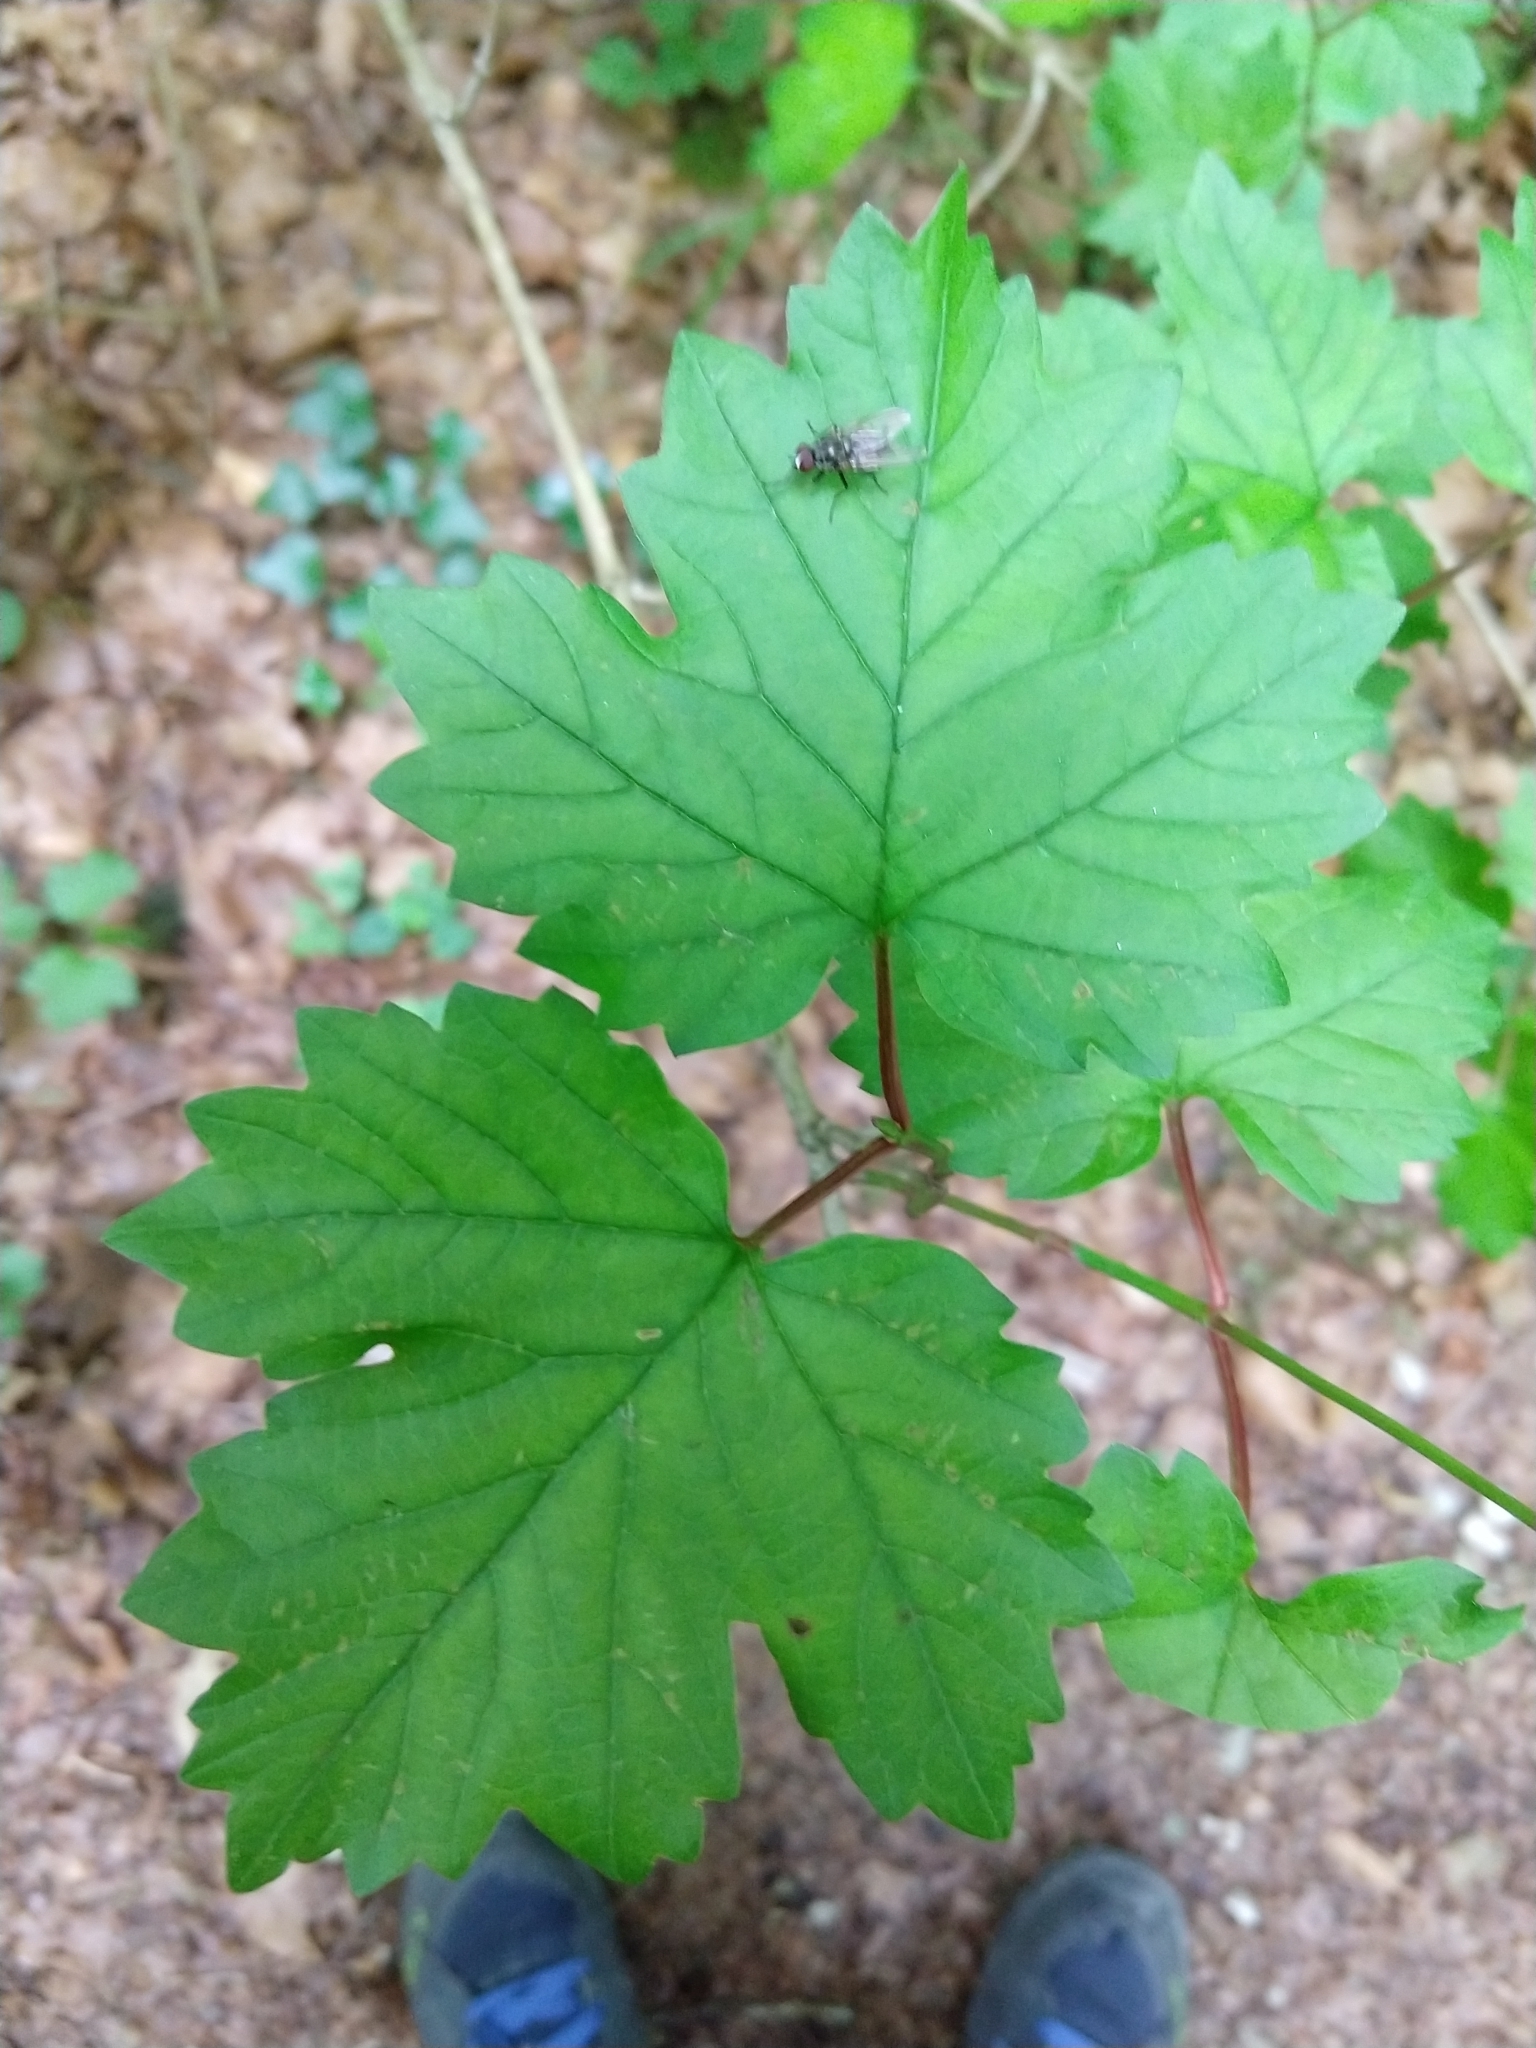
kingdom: Plantae
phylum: Tracheophyta
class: Magnoliopsida
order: Dipsacales
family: Viburnaceae
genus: Viburnum
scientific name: Viburnum opulus
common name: Guelder-rose
